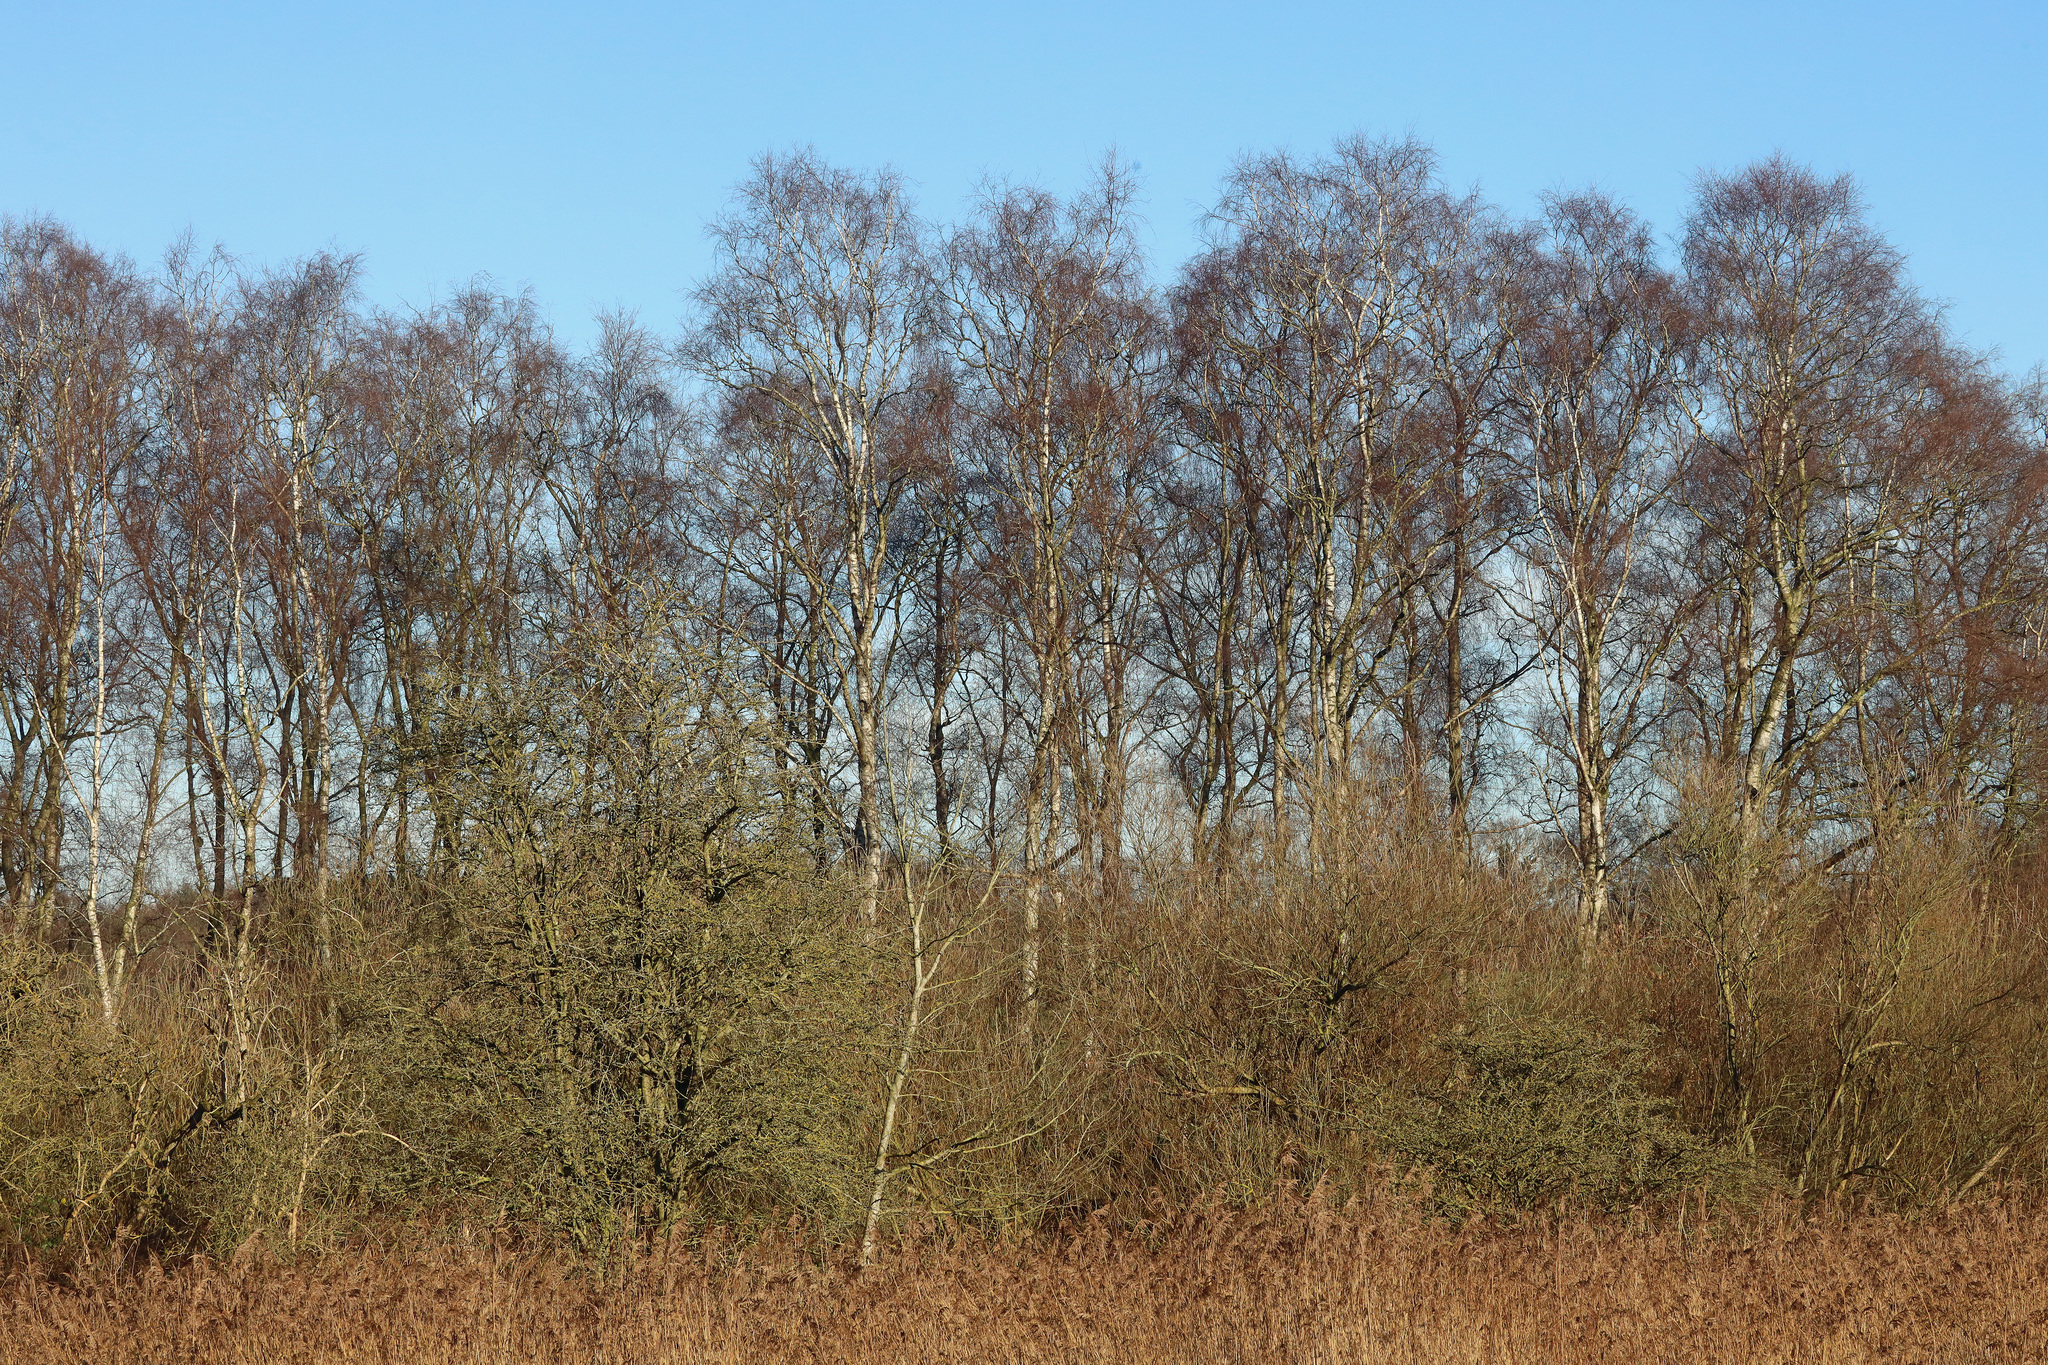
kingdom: Plantae
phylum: Tracheophyta
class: Magnoliopsida
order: Fagales
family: Betulaceae
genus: Betula
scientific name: Betula pendula
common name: Silver birch
